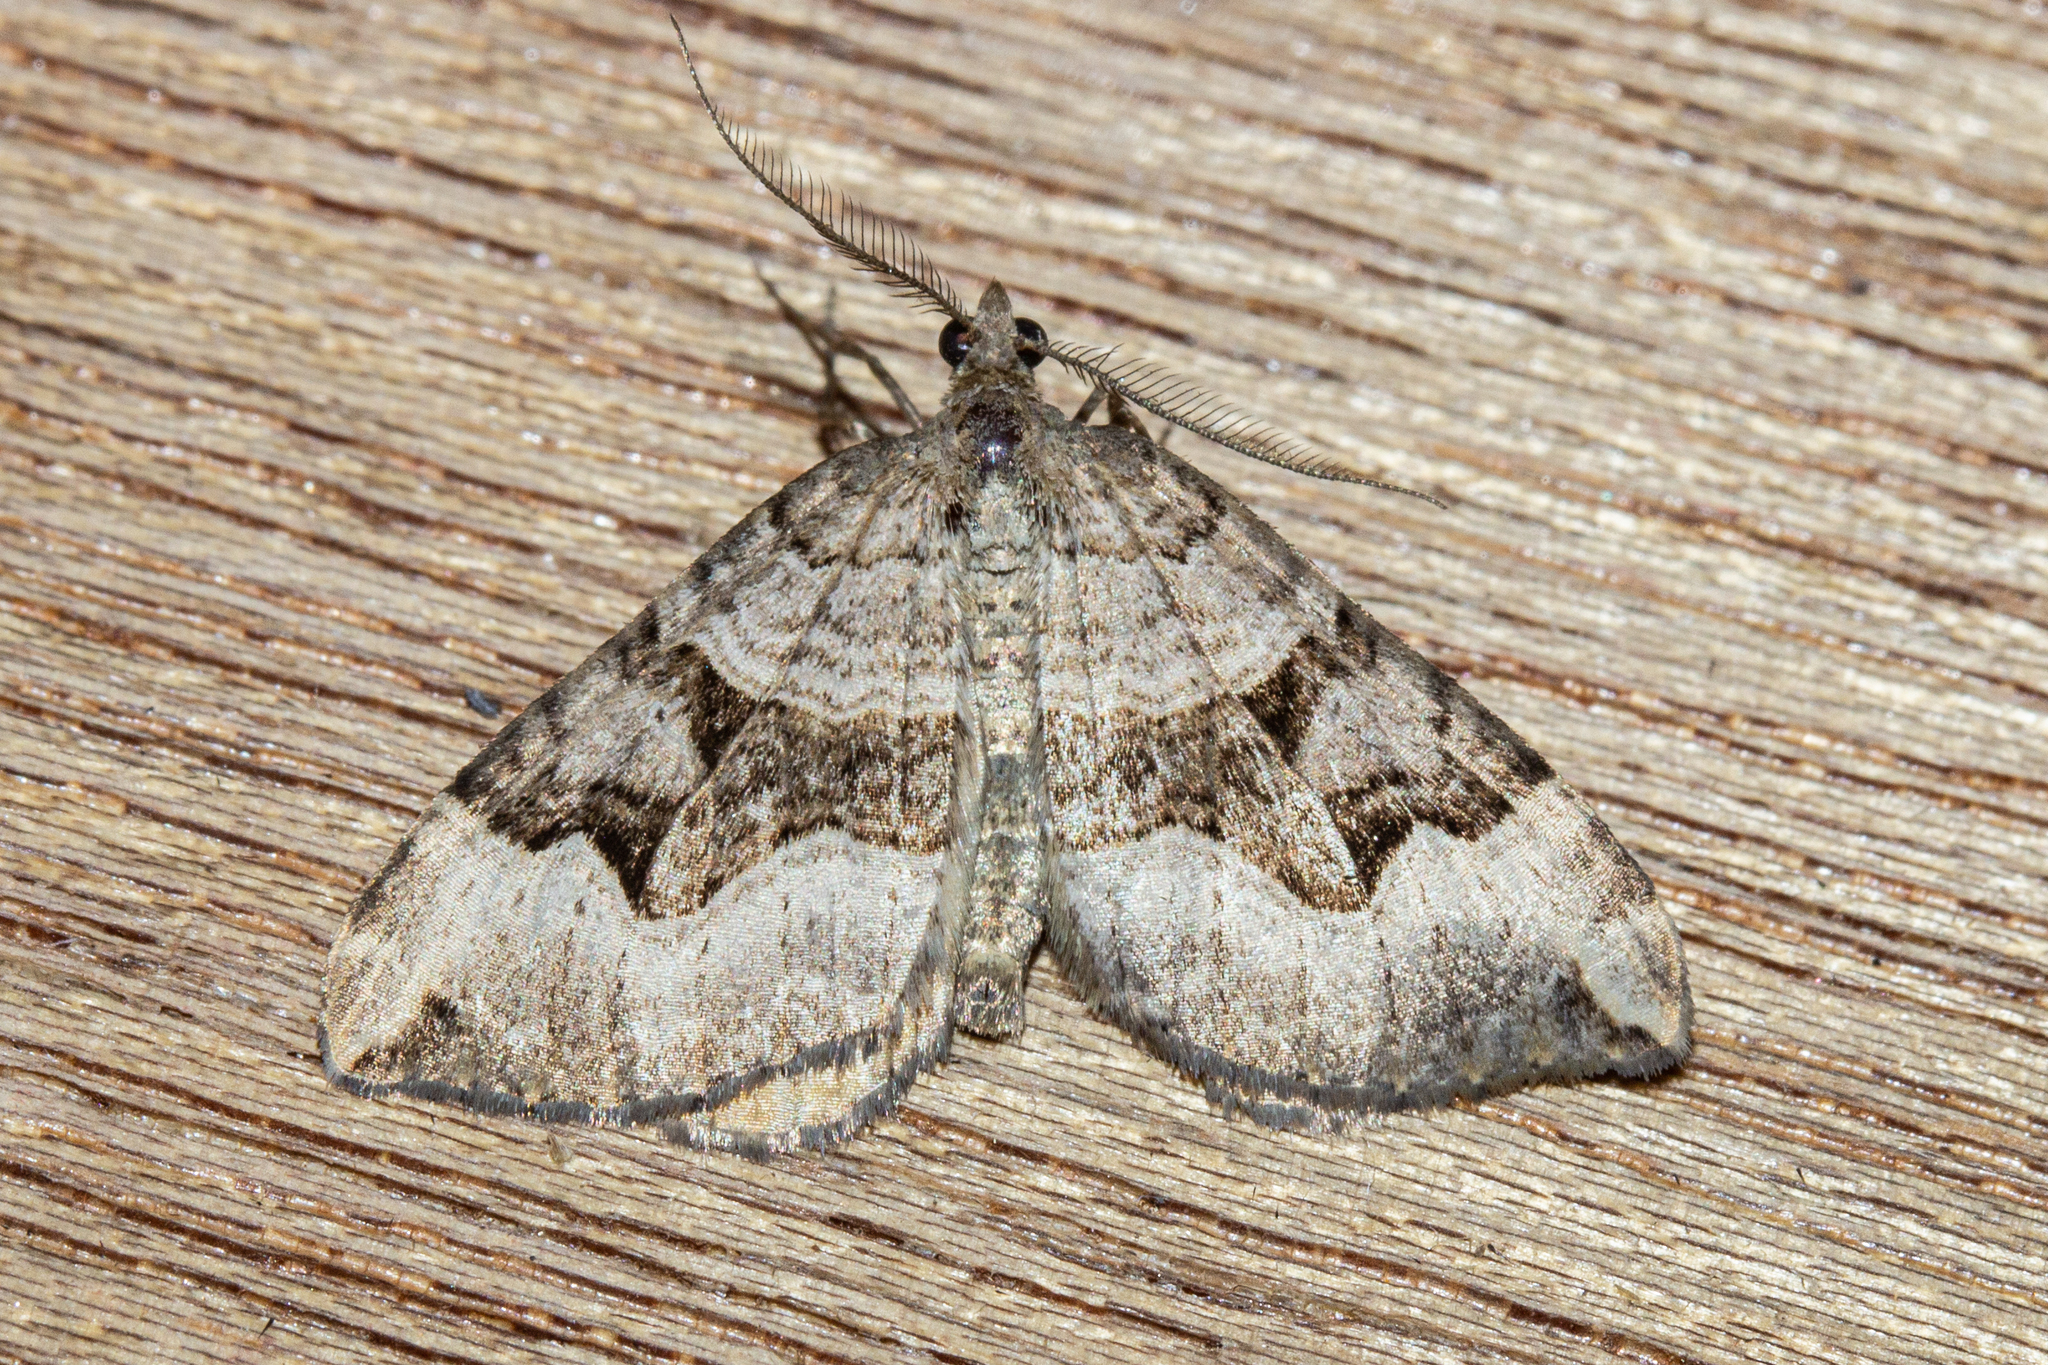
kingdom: Animalia
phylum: Arthropoda
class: Insecta
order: Lepidoptera
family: Geometridae
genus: Xanthorhoe
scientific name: Xanthorhoe semifissata
